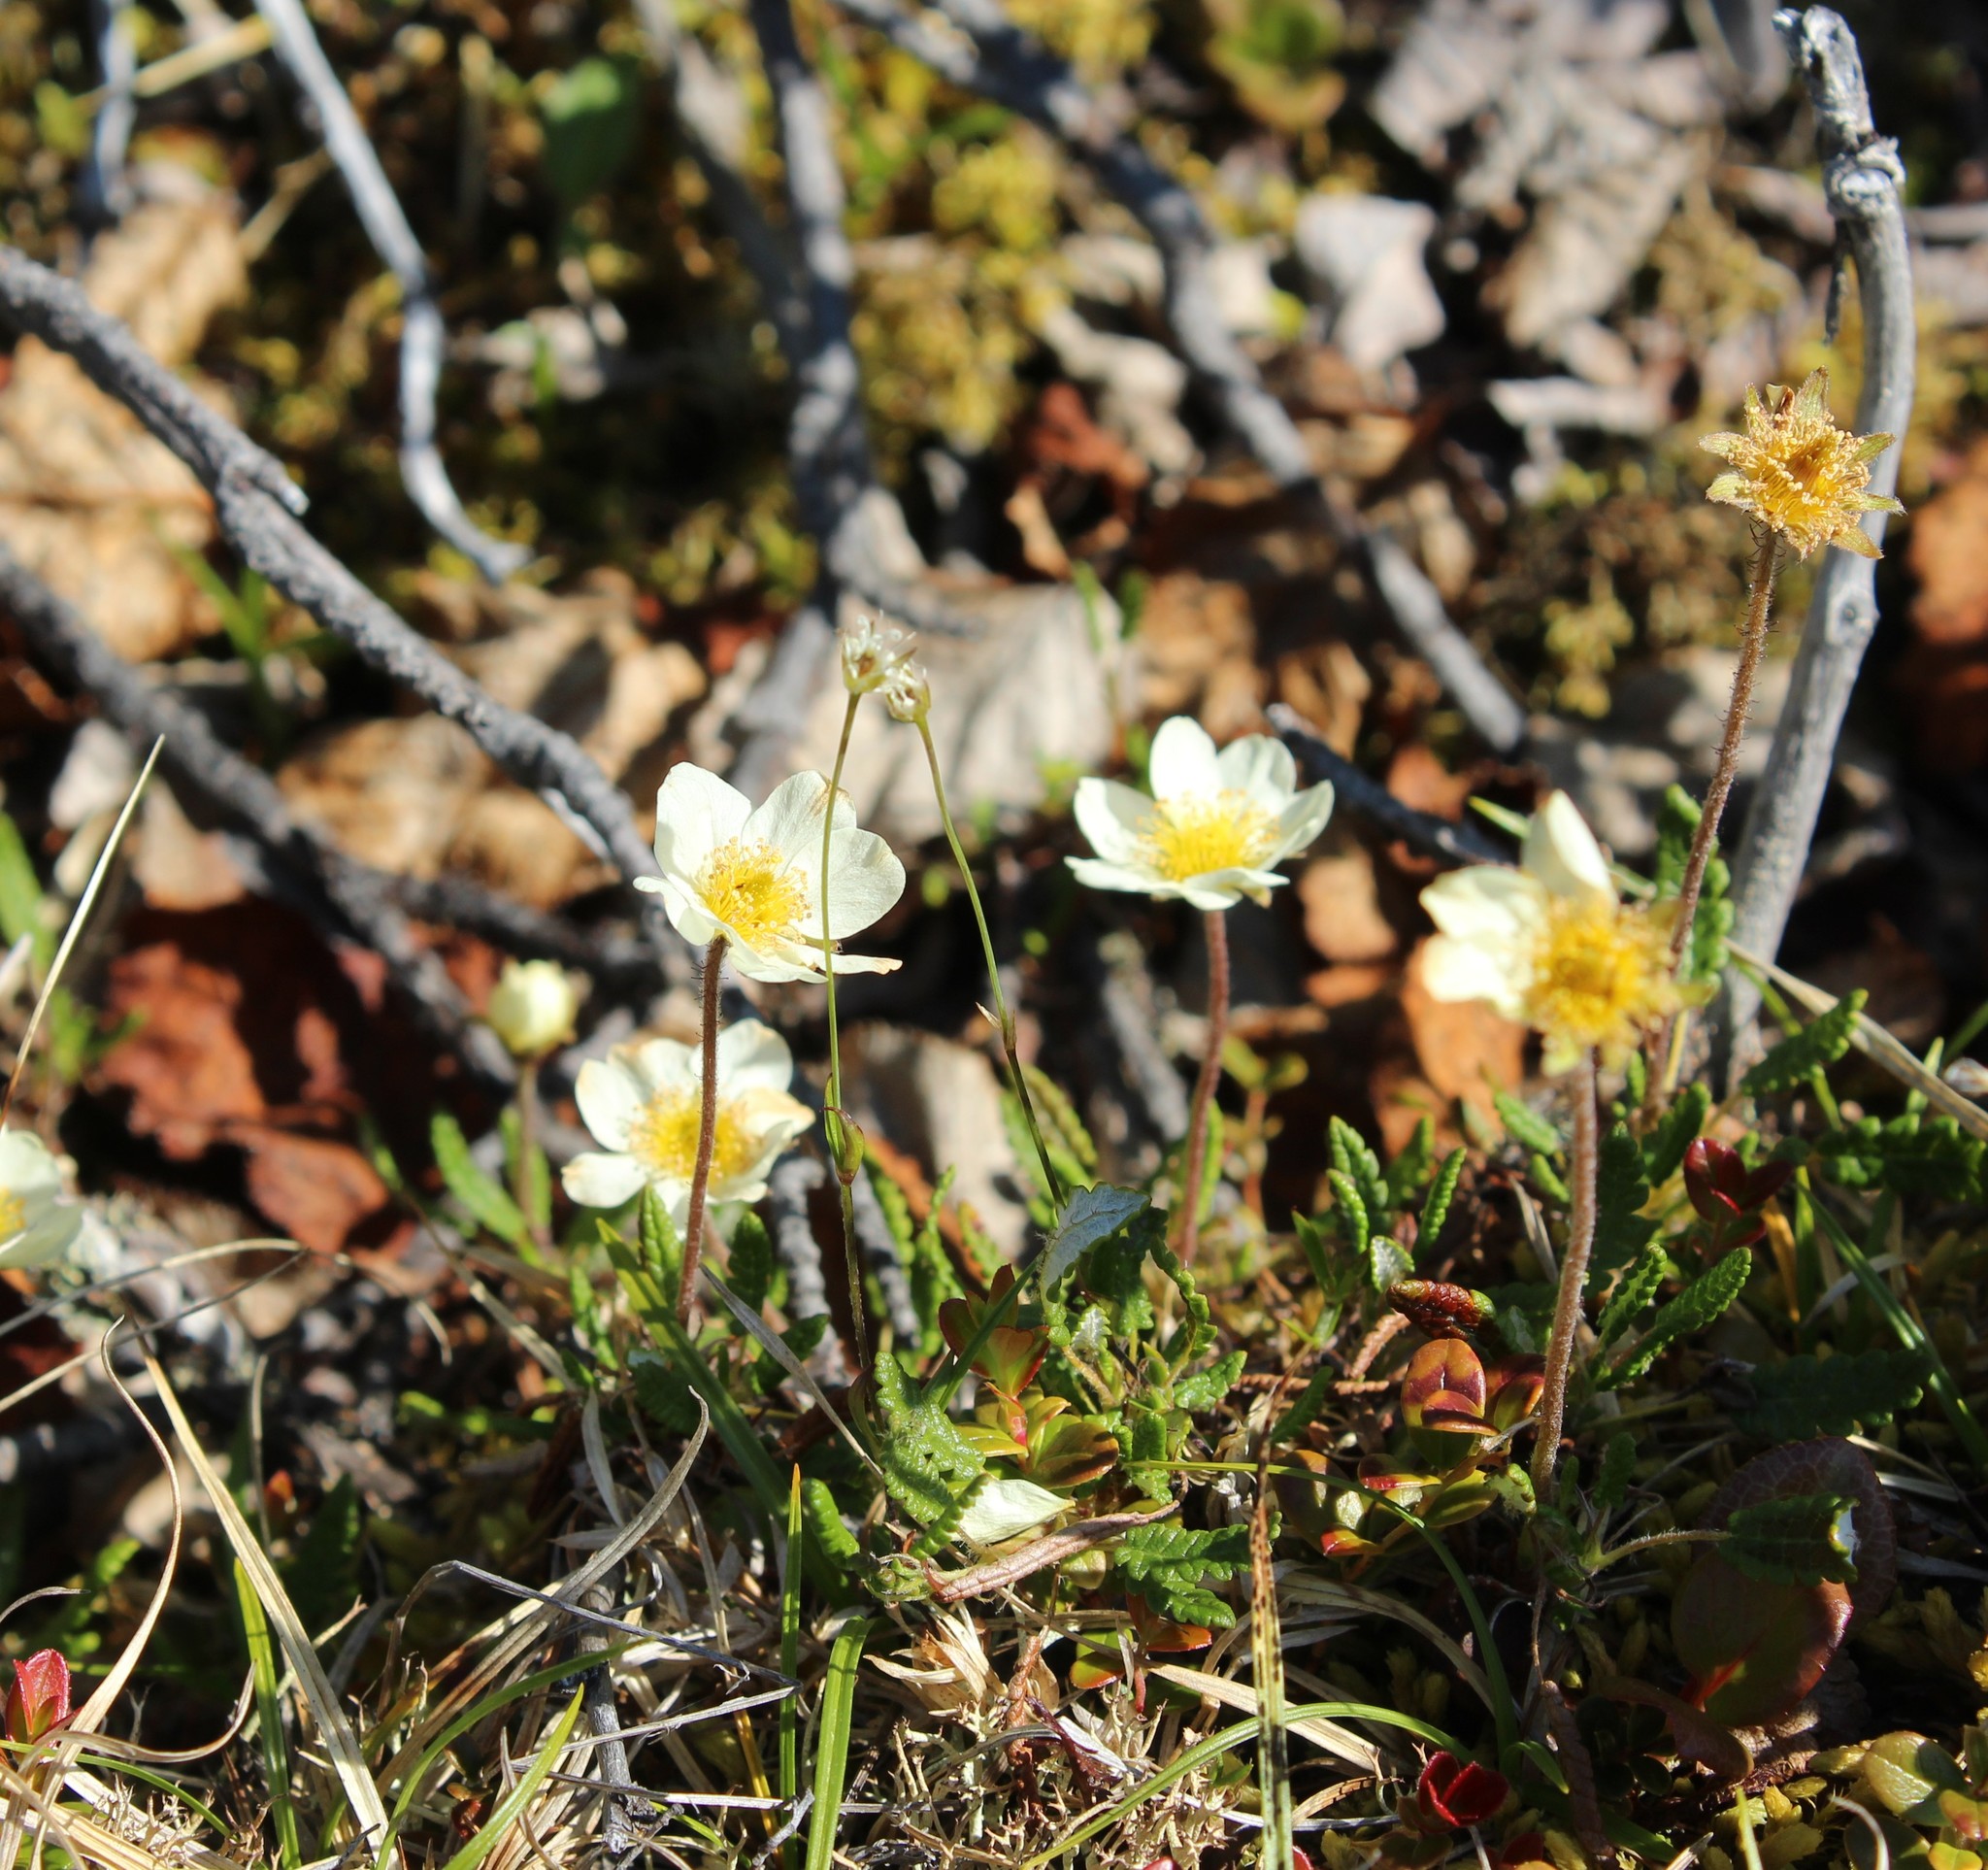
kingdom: Plantae
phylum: Tracheophyta
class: Magnoliopsida
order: Rosales
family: Rosaceae
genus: Dryas
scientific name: Dryas octopetala
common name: Eight-petal mountain-avens
